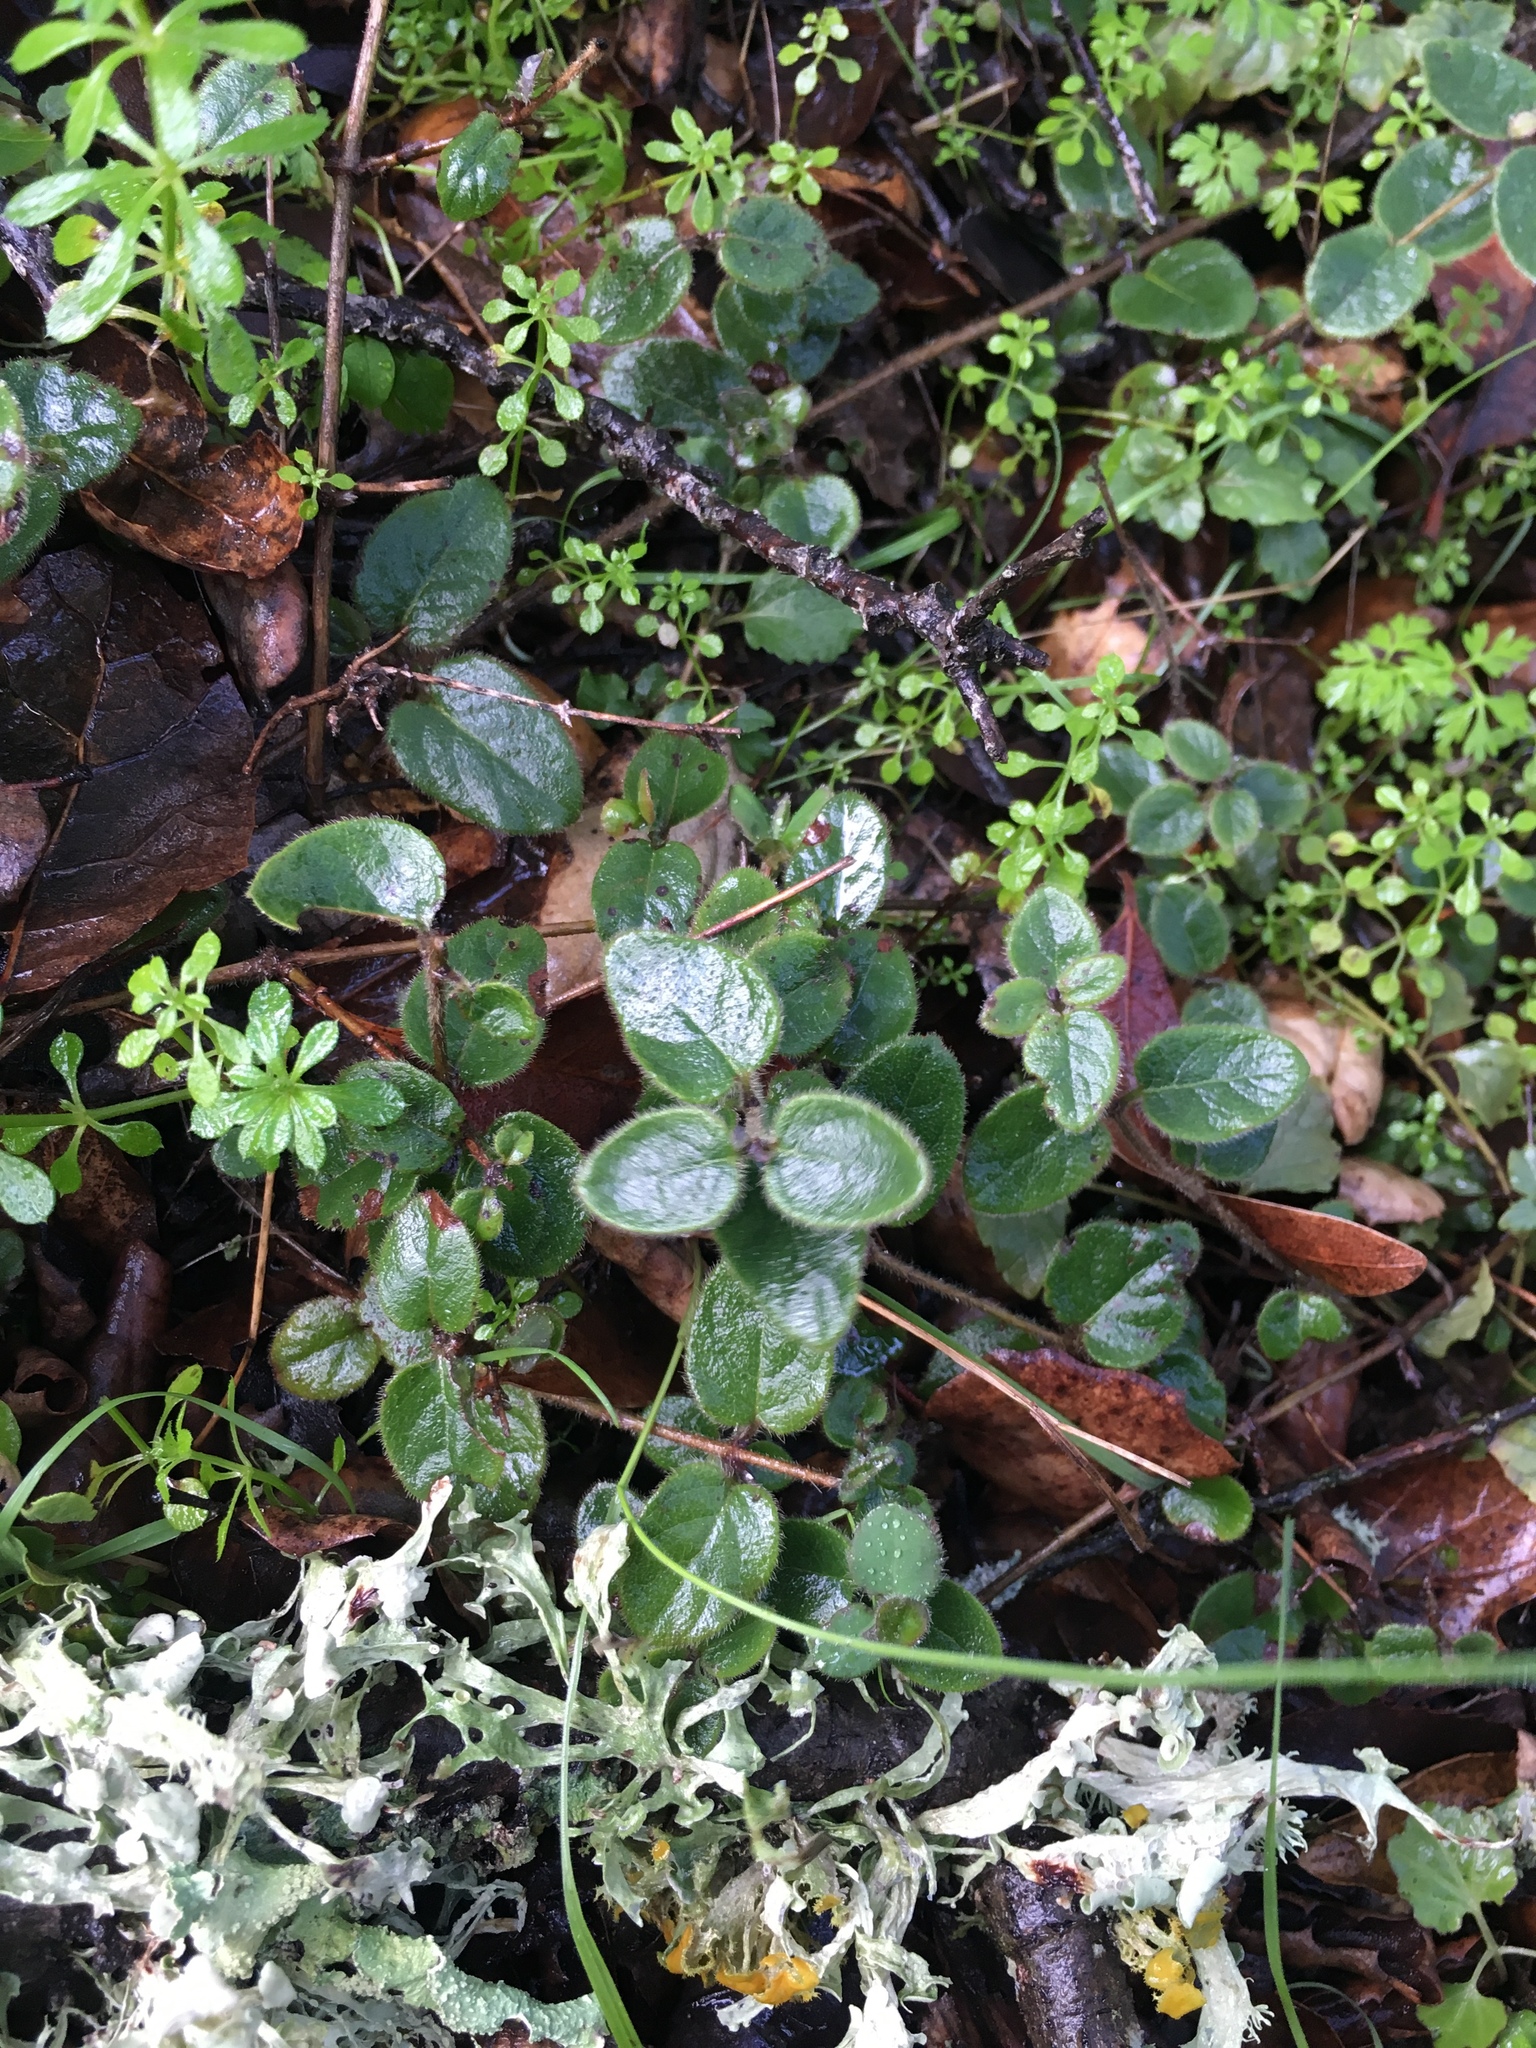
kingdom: Plantae
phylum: Tracheophyta
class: Magnoliopsida
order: Dipsacales
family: Caprifoliaceae
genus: Lonicera
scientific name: Lonicera hispidula
